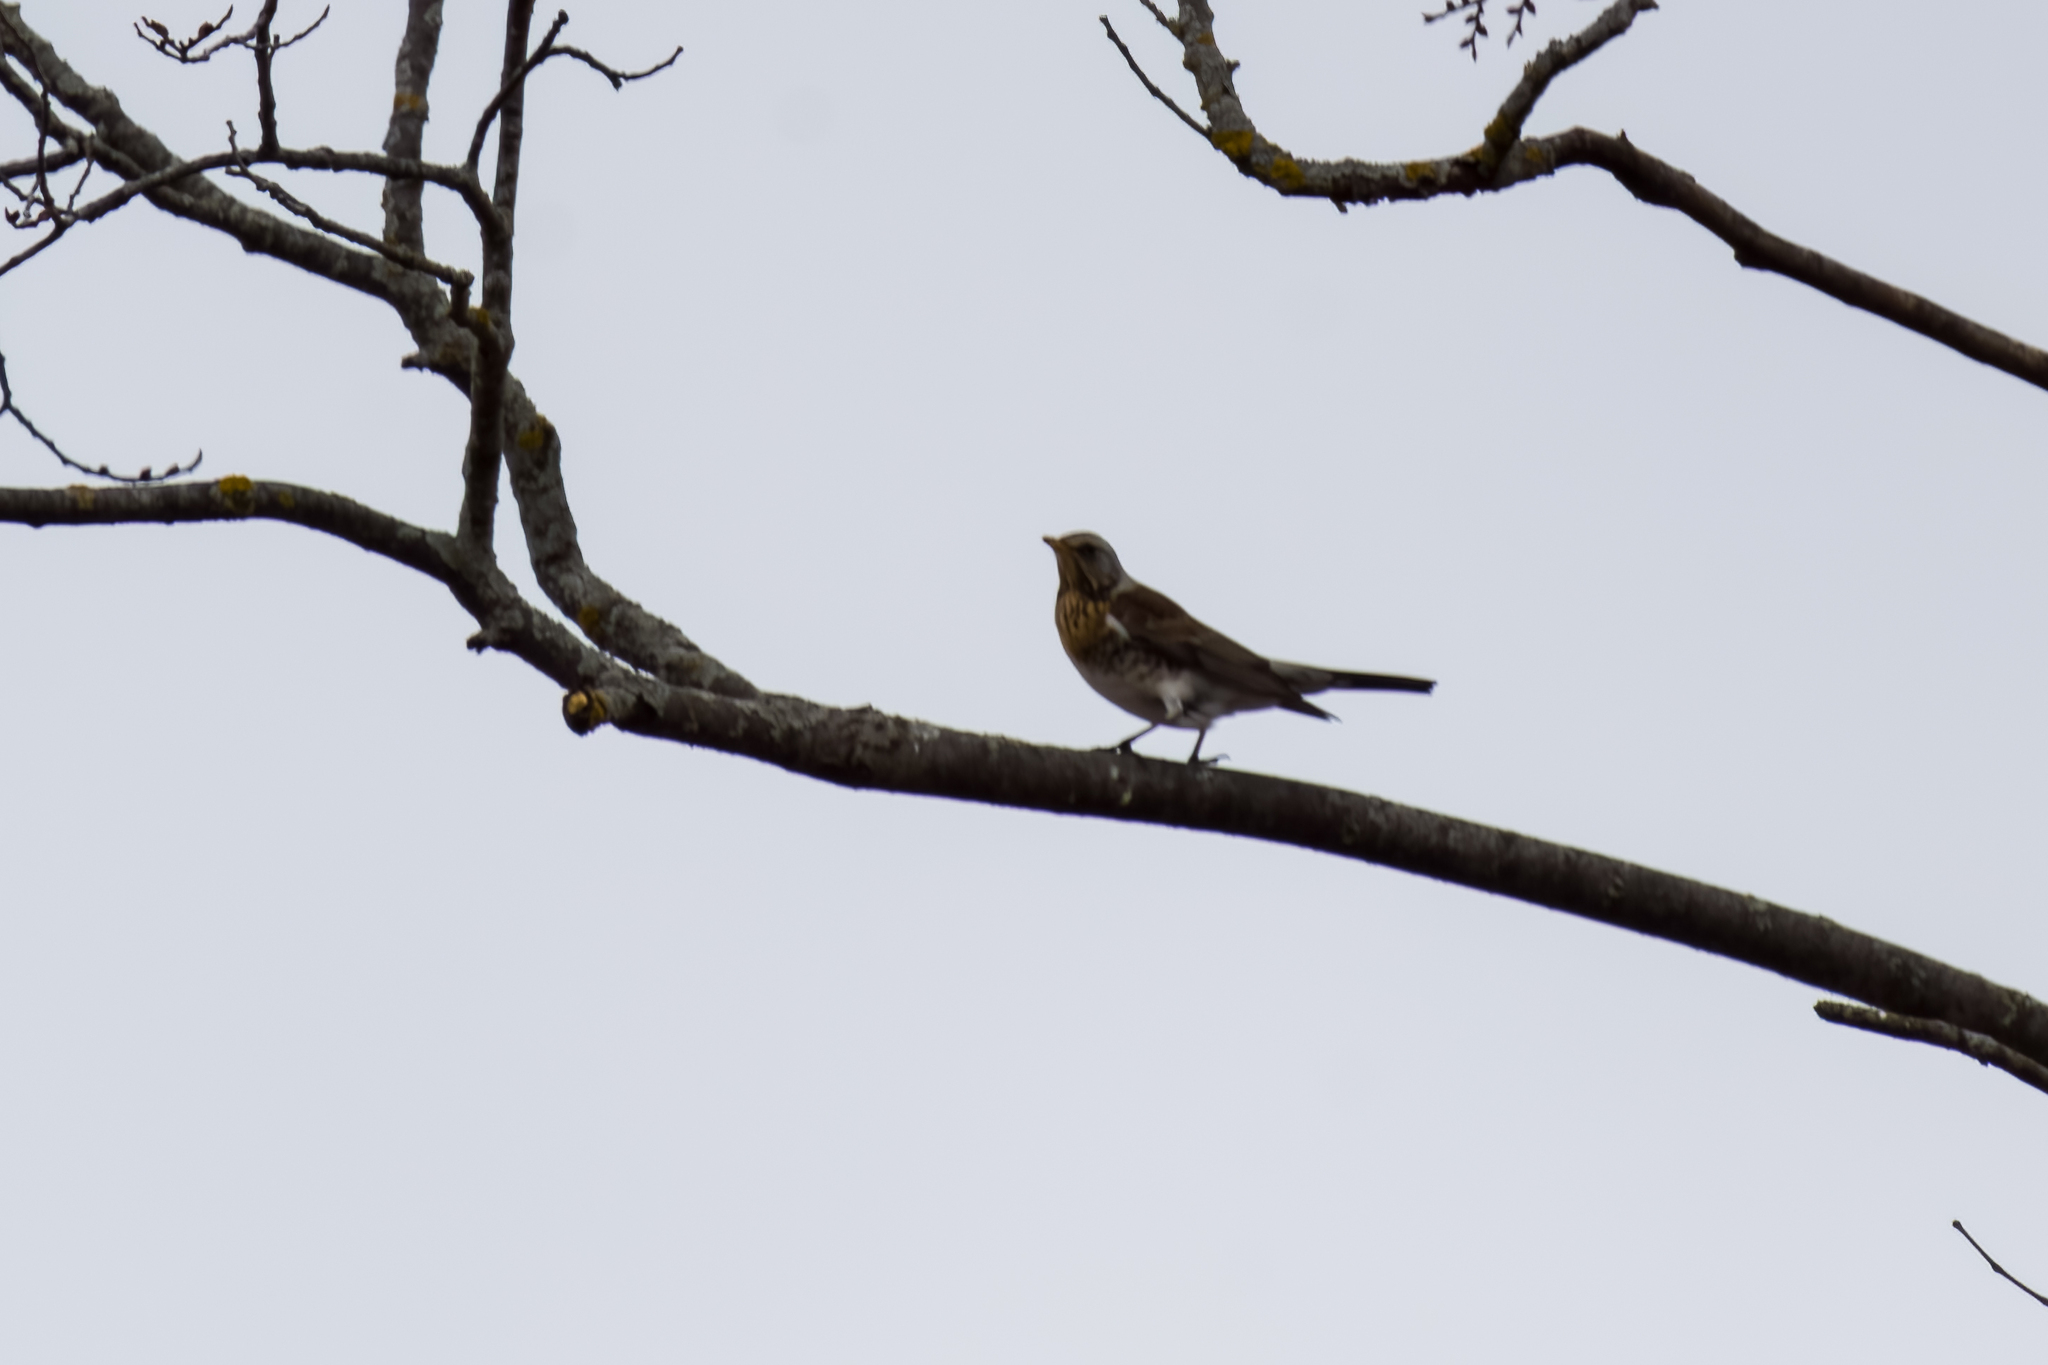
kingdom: Animalia
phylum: Chordata
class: Aves
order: Passeriformes
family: Turdidae
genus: Turdus
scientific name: Turdus pilaris
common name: Fieldfare
